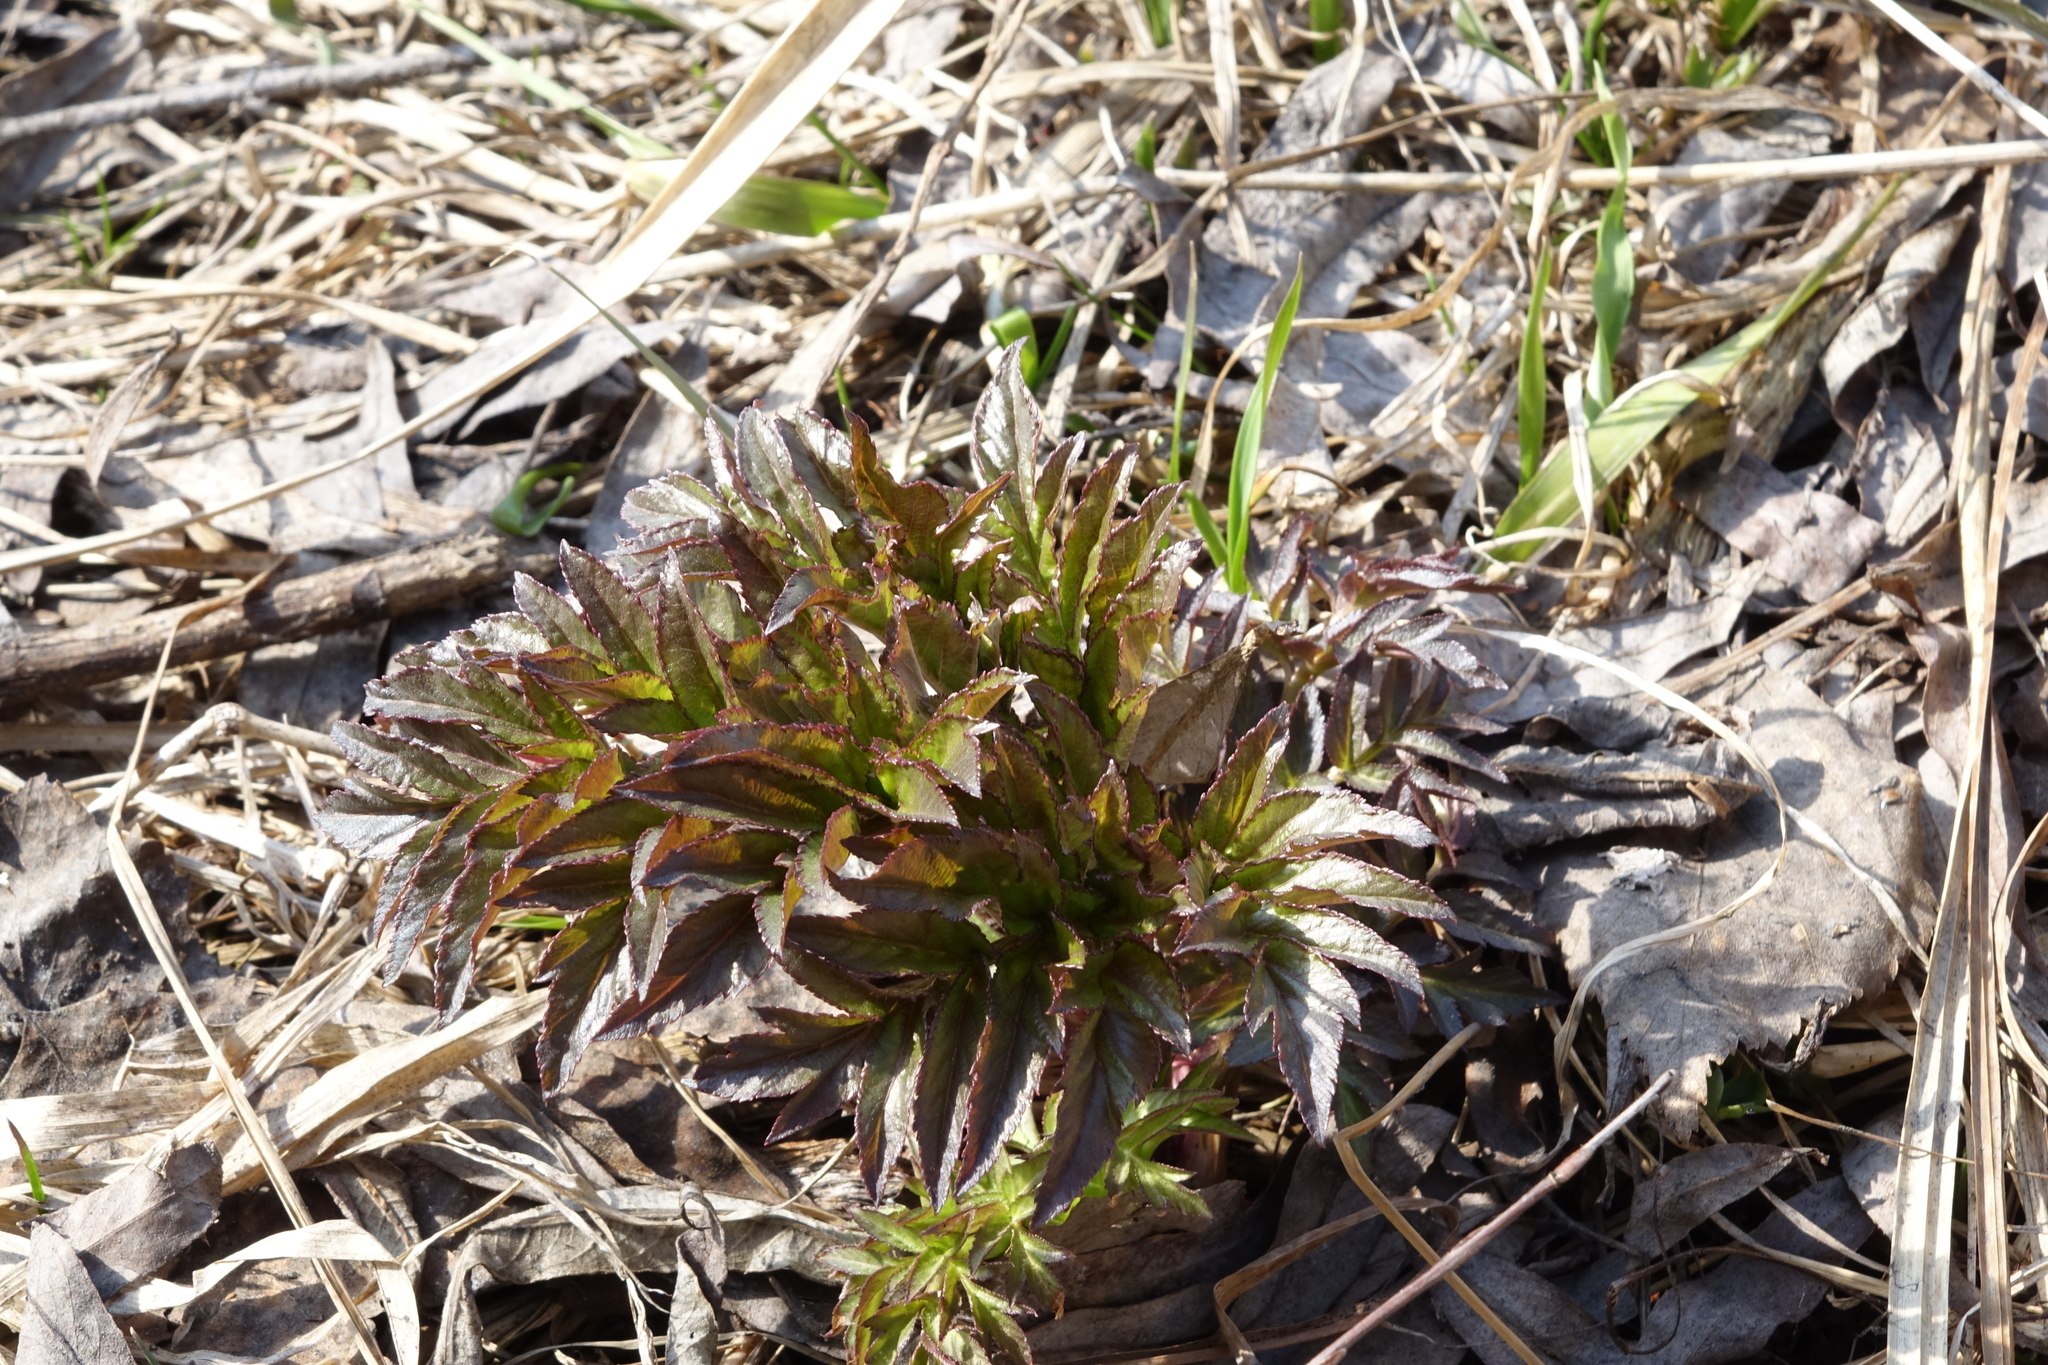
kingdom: Plantae
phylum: Tracheophyta
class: Magnoliopsida
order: Apiales
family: Apiaceae
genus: Angelica
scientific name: Angelica decurrens
